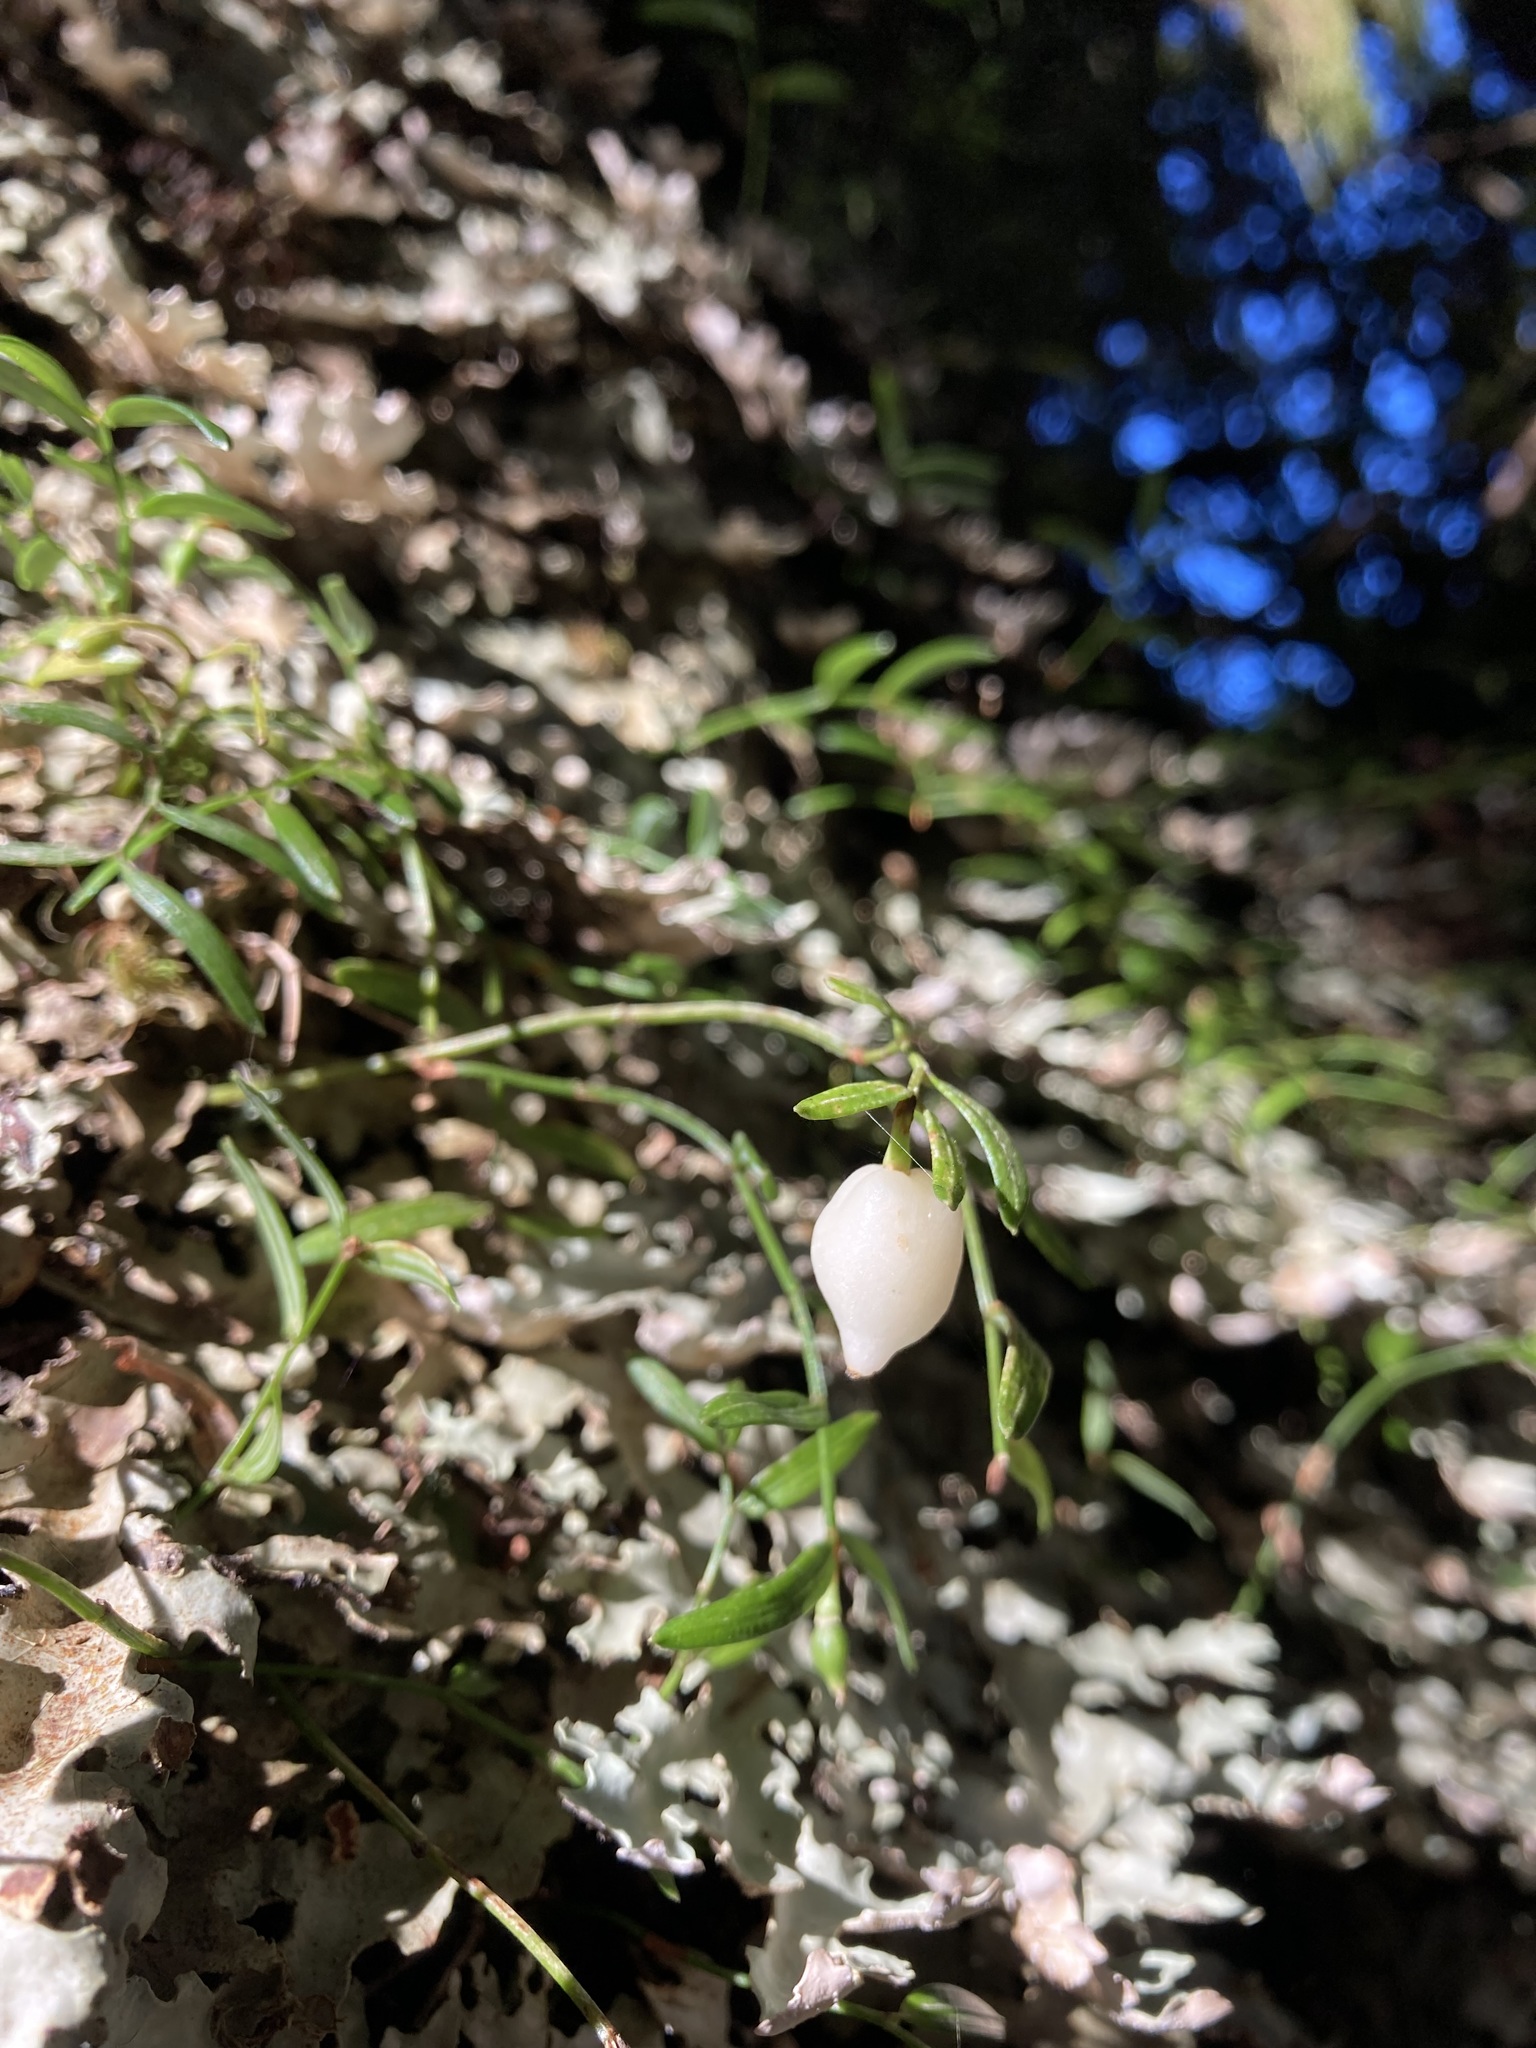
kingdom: Plantae
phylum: Tracheophyta
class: Liliopsida
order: Liliales
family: Alstroemeriaceae
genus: Luzuriaga
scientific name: Luzuriaga parviflora
